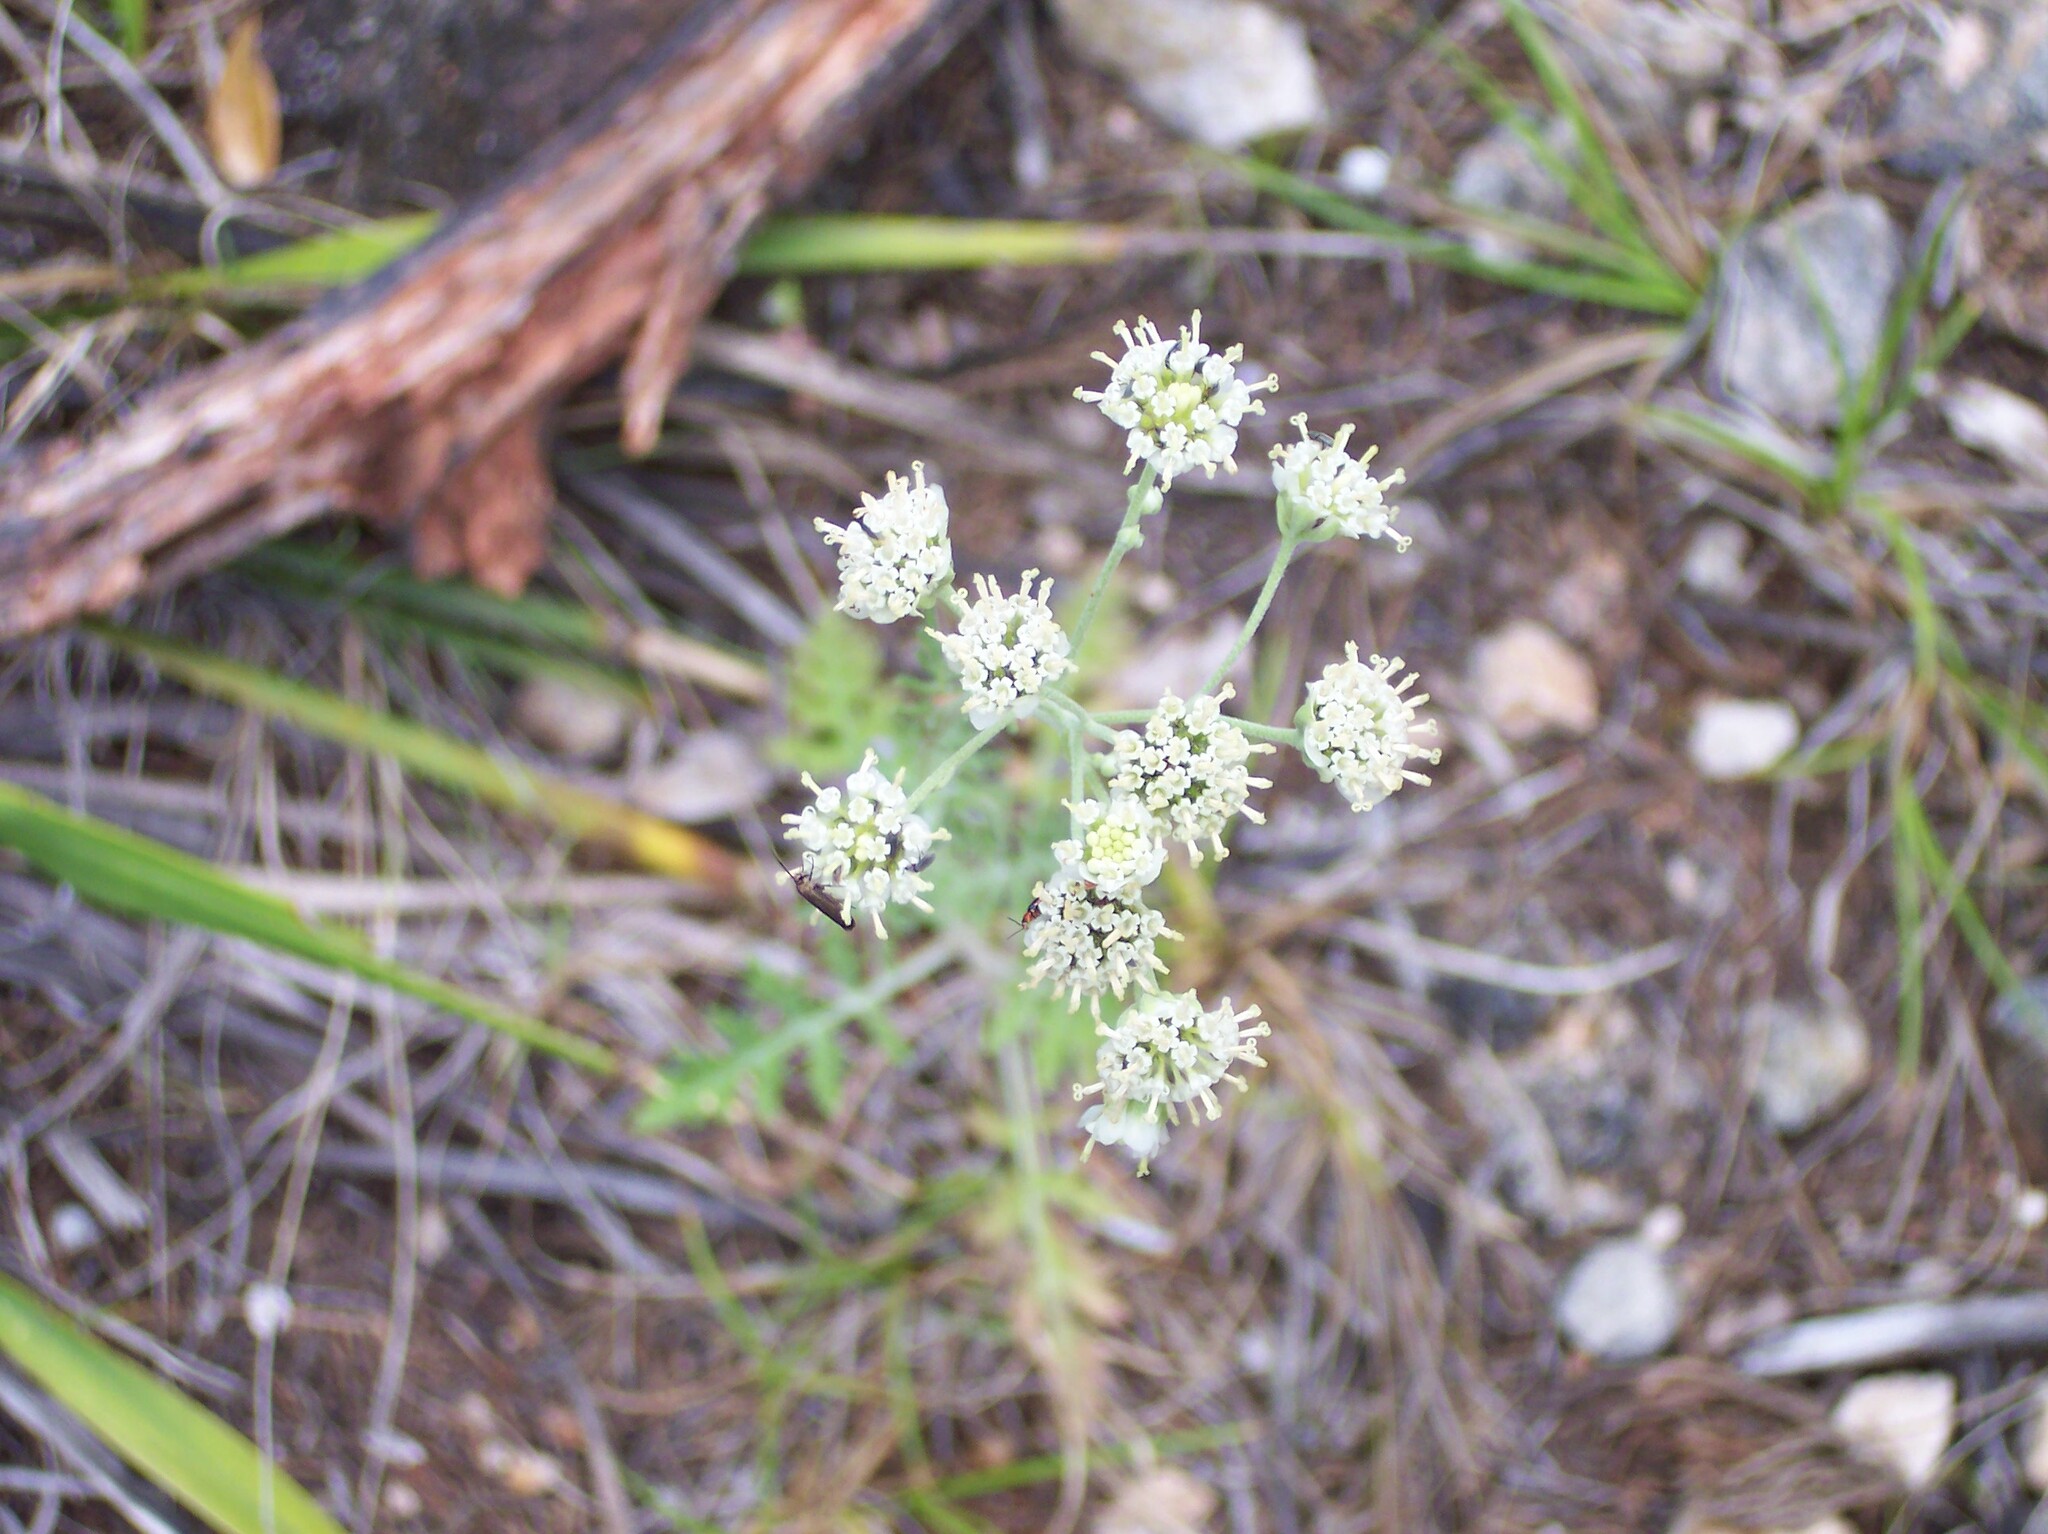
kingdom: Plantae
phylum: Tracheophyta
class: Magnoliopsida
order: Asterales
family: Asteraceae
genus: Hymenopappus
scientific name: Hymenopappus scabiosaeus
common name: Carolina woollywhite
